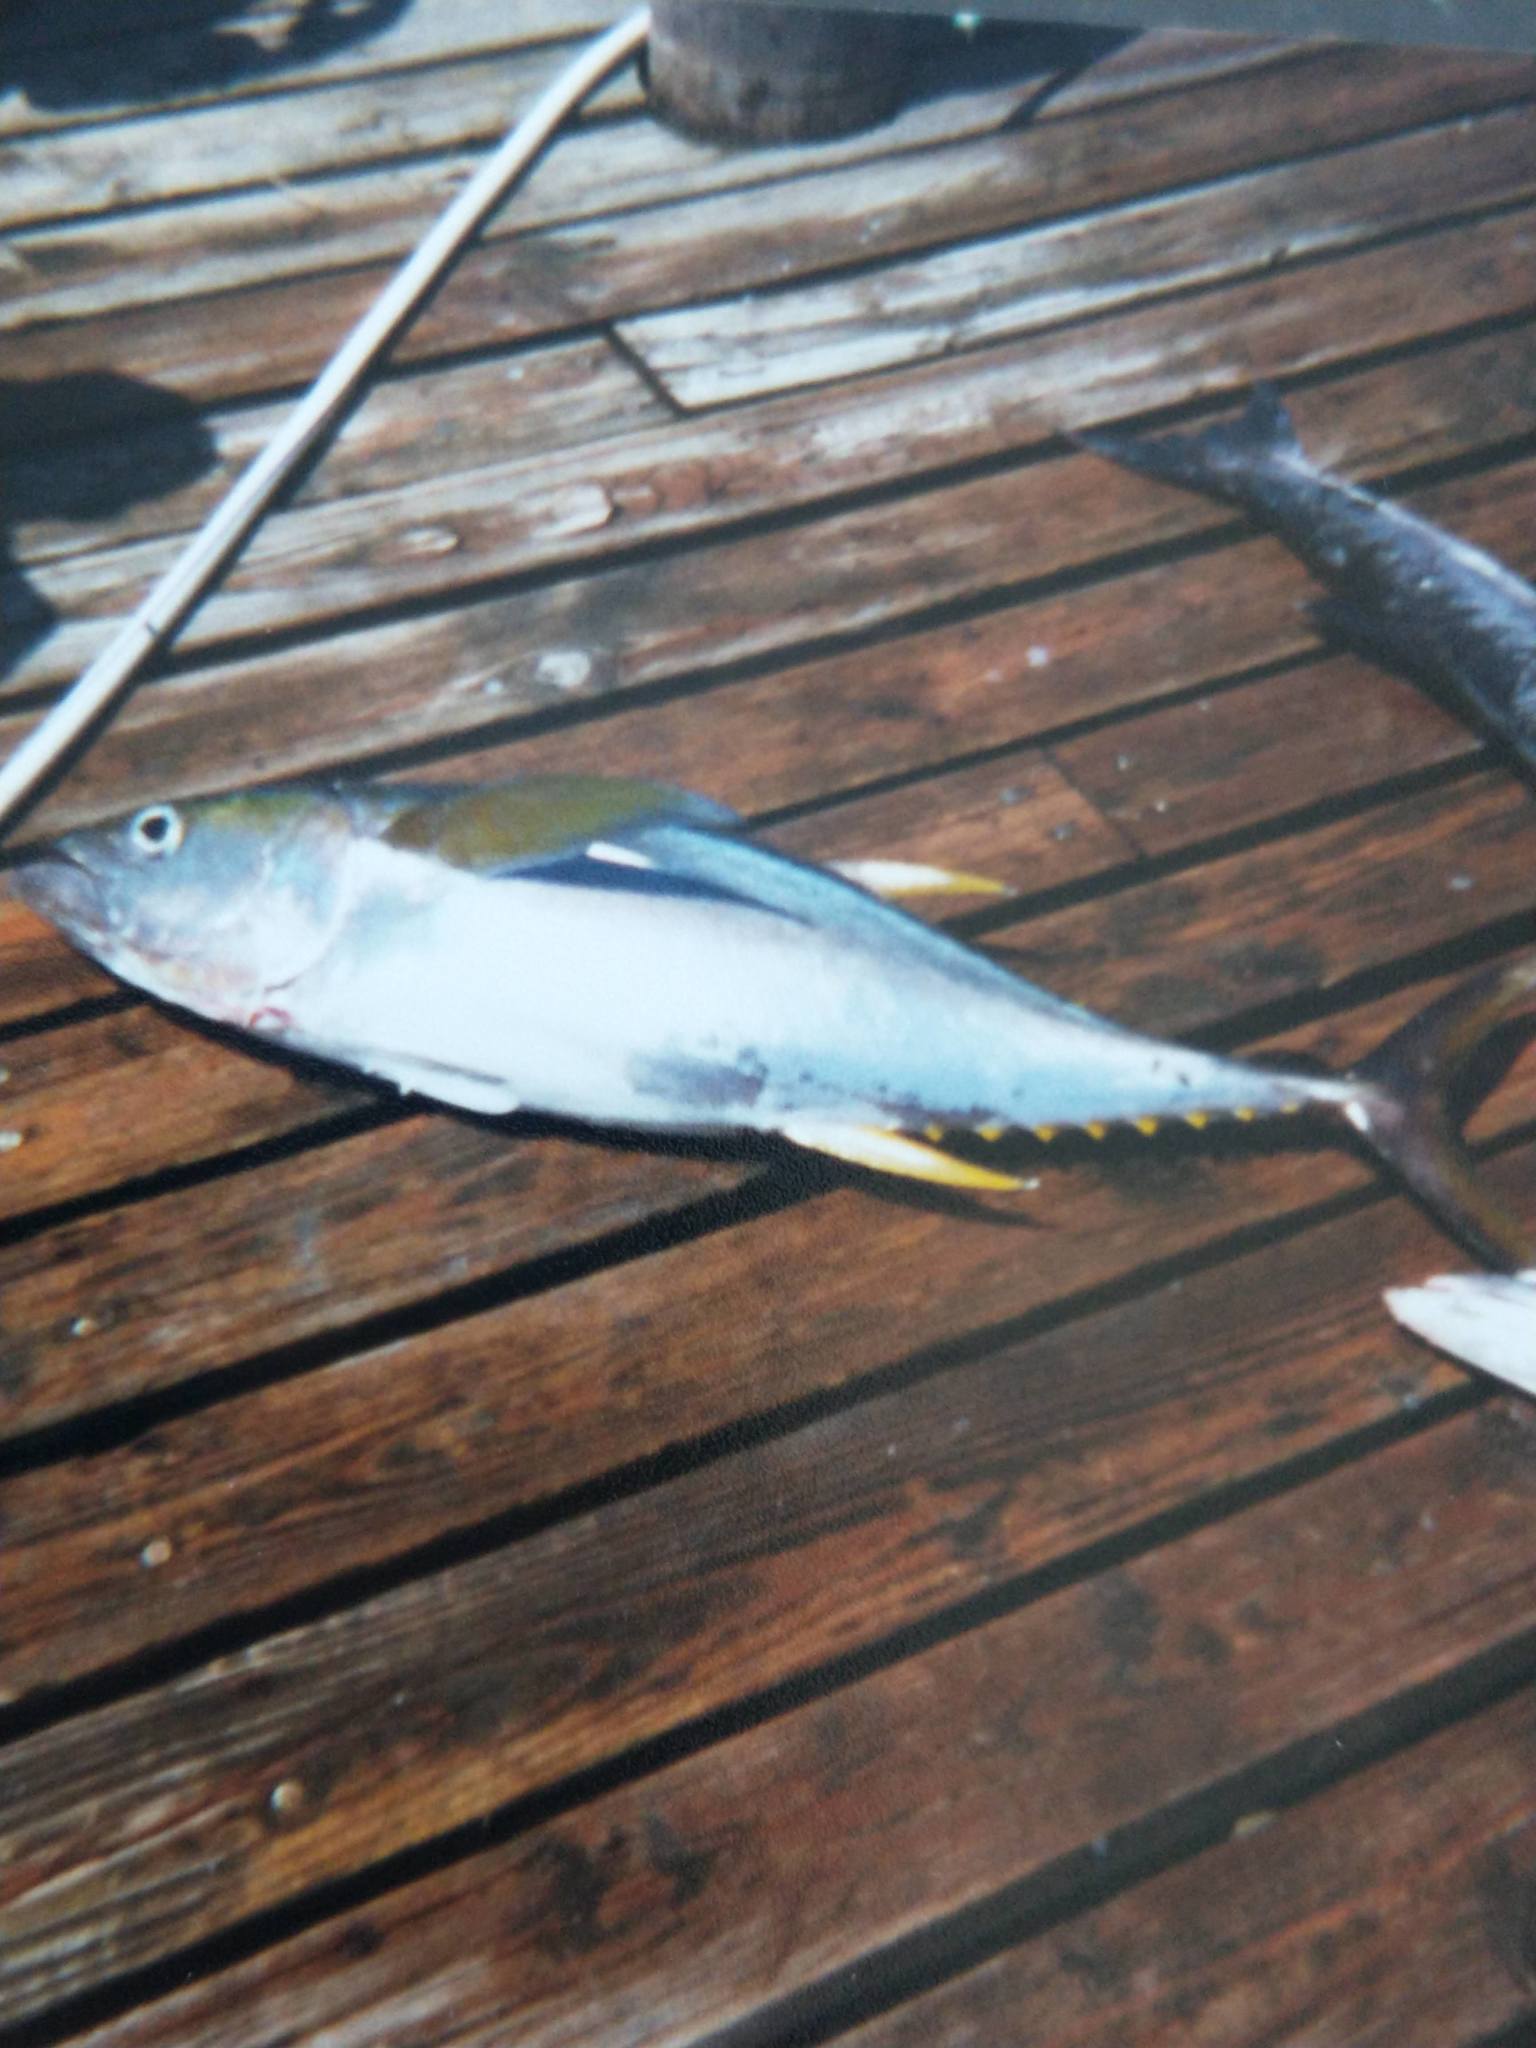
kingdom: Animalia
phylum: Chordata
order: Perciformes
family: Scombridae
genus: Thunnus
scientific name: Thunnus albacares
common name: Yellowfin tuna
